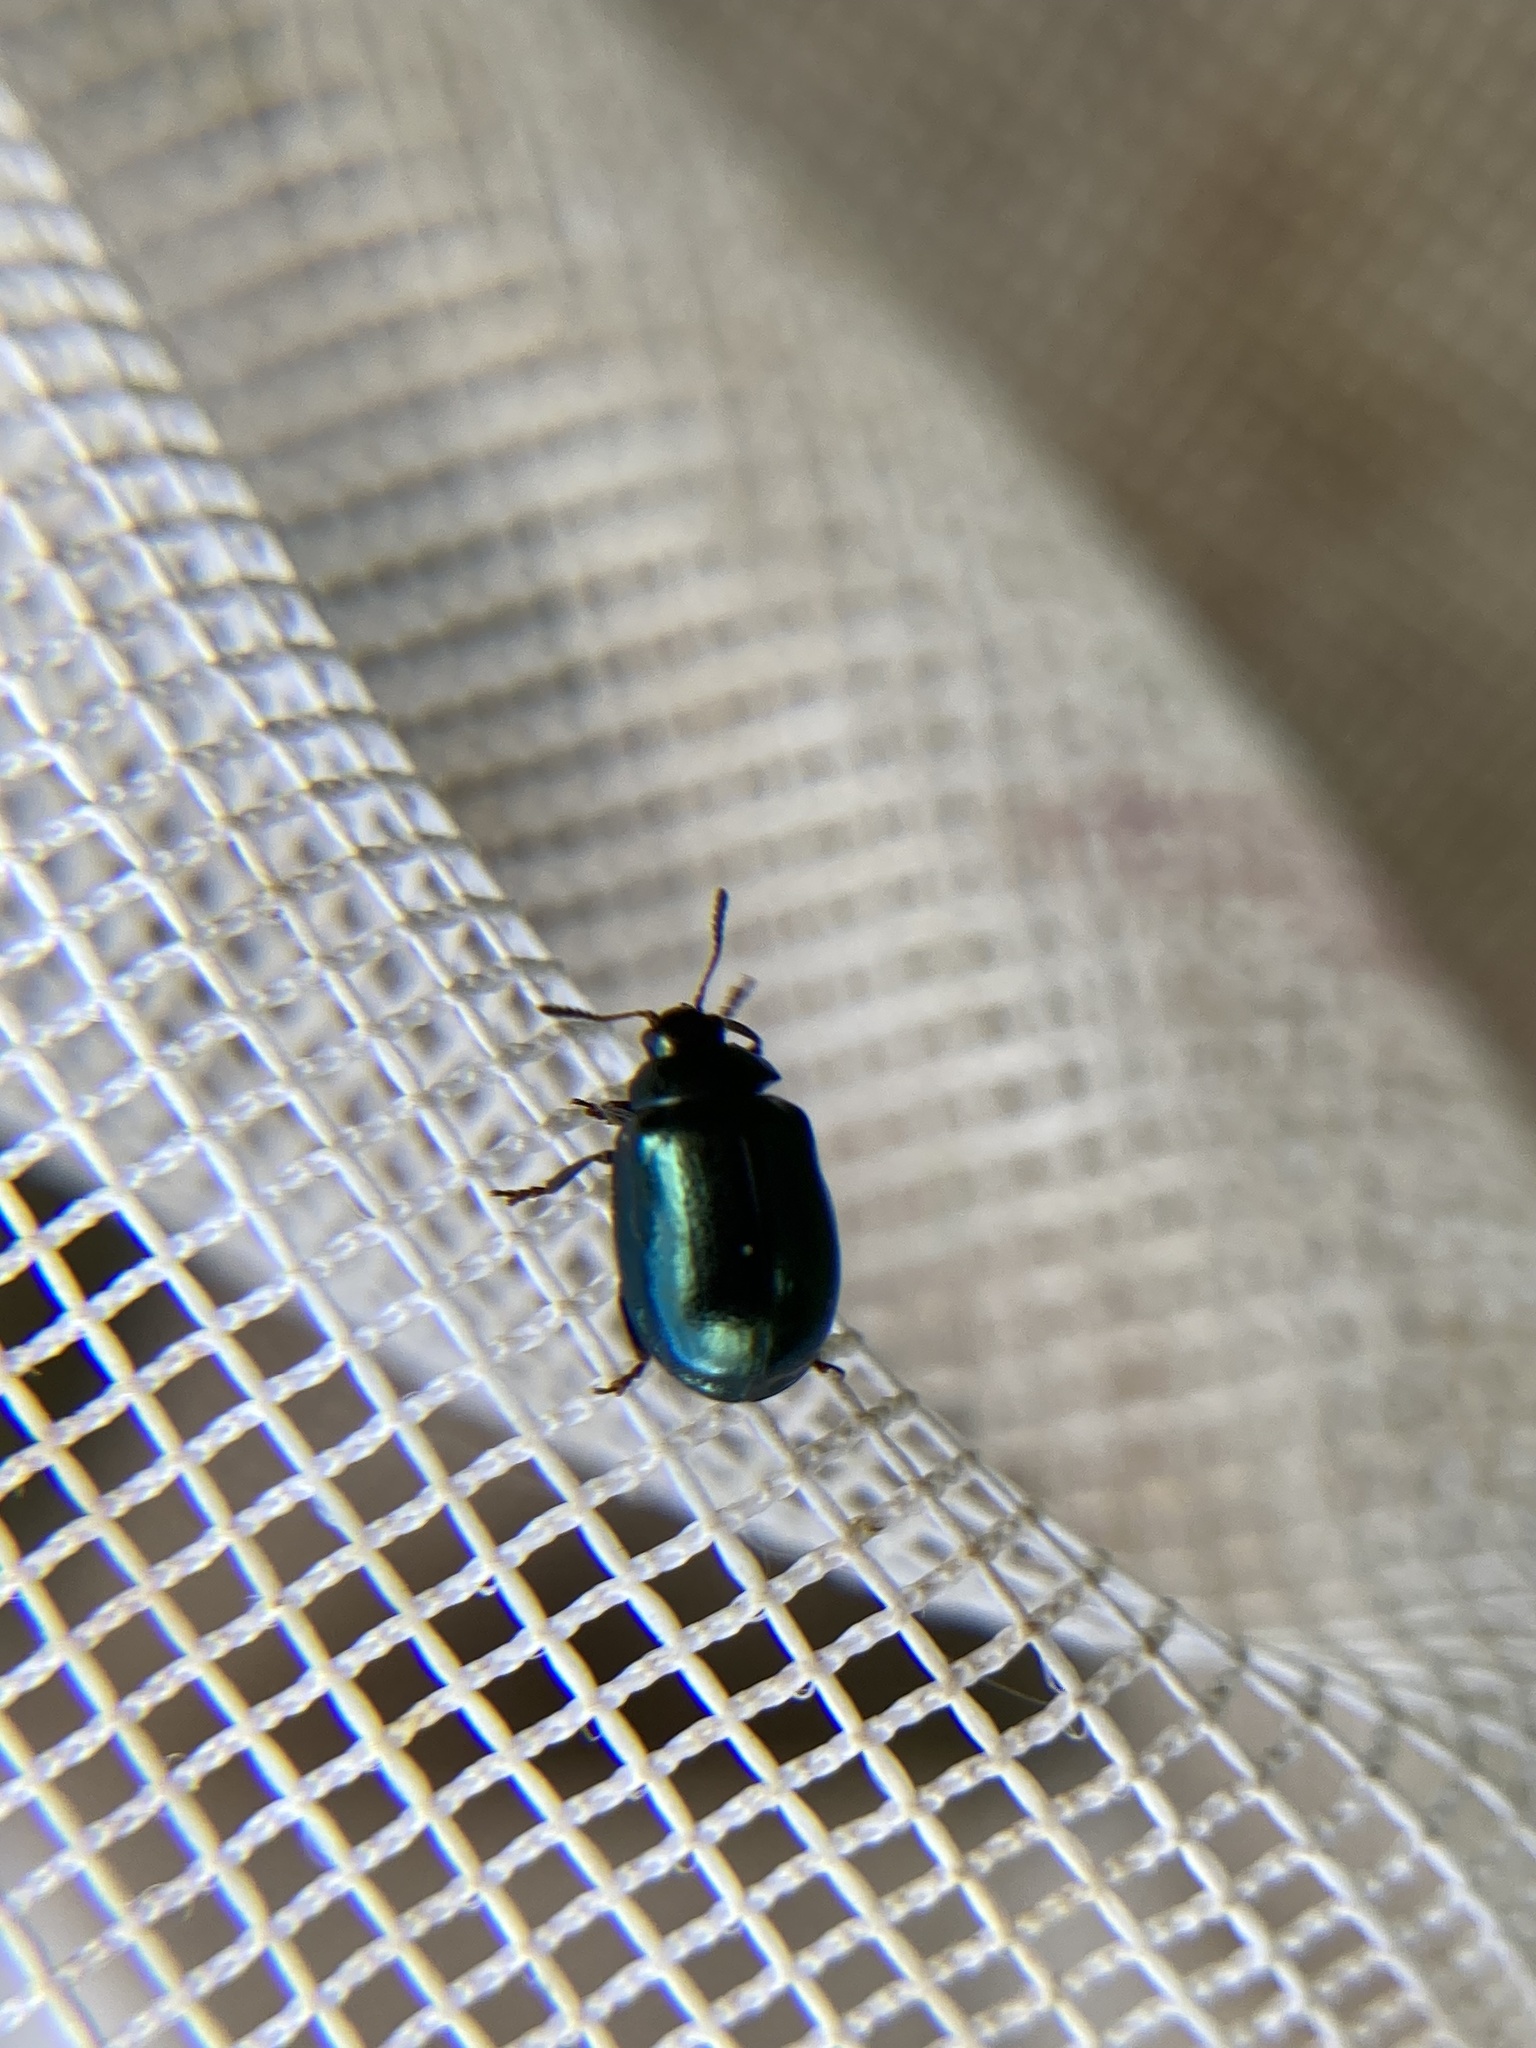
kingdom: Animalia
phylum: Arthropoda
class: Insecta
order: Coleoptera
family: Chrysomelidae
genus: Plagiodera
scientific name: Plagiodera versicolora
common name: Imported willow leaf beetle
